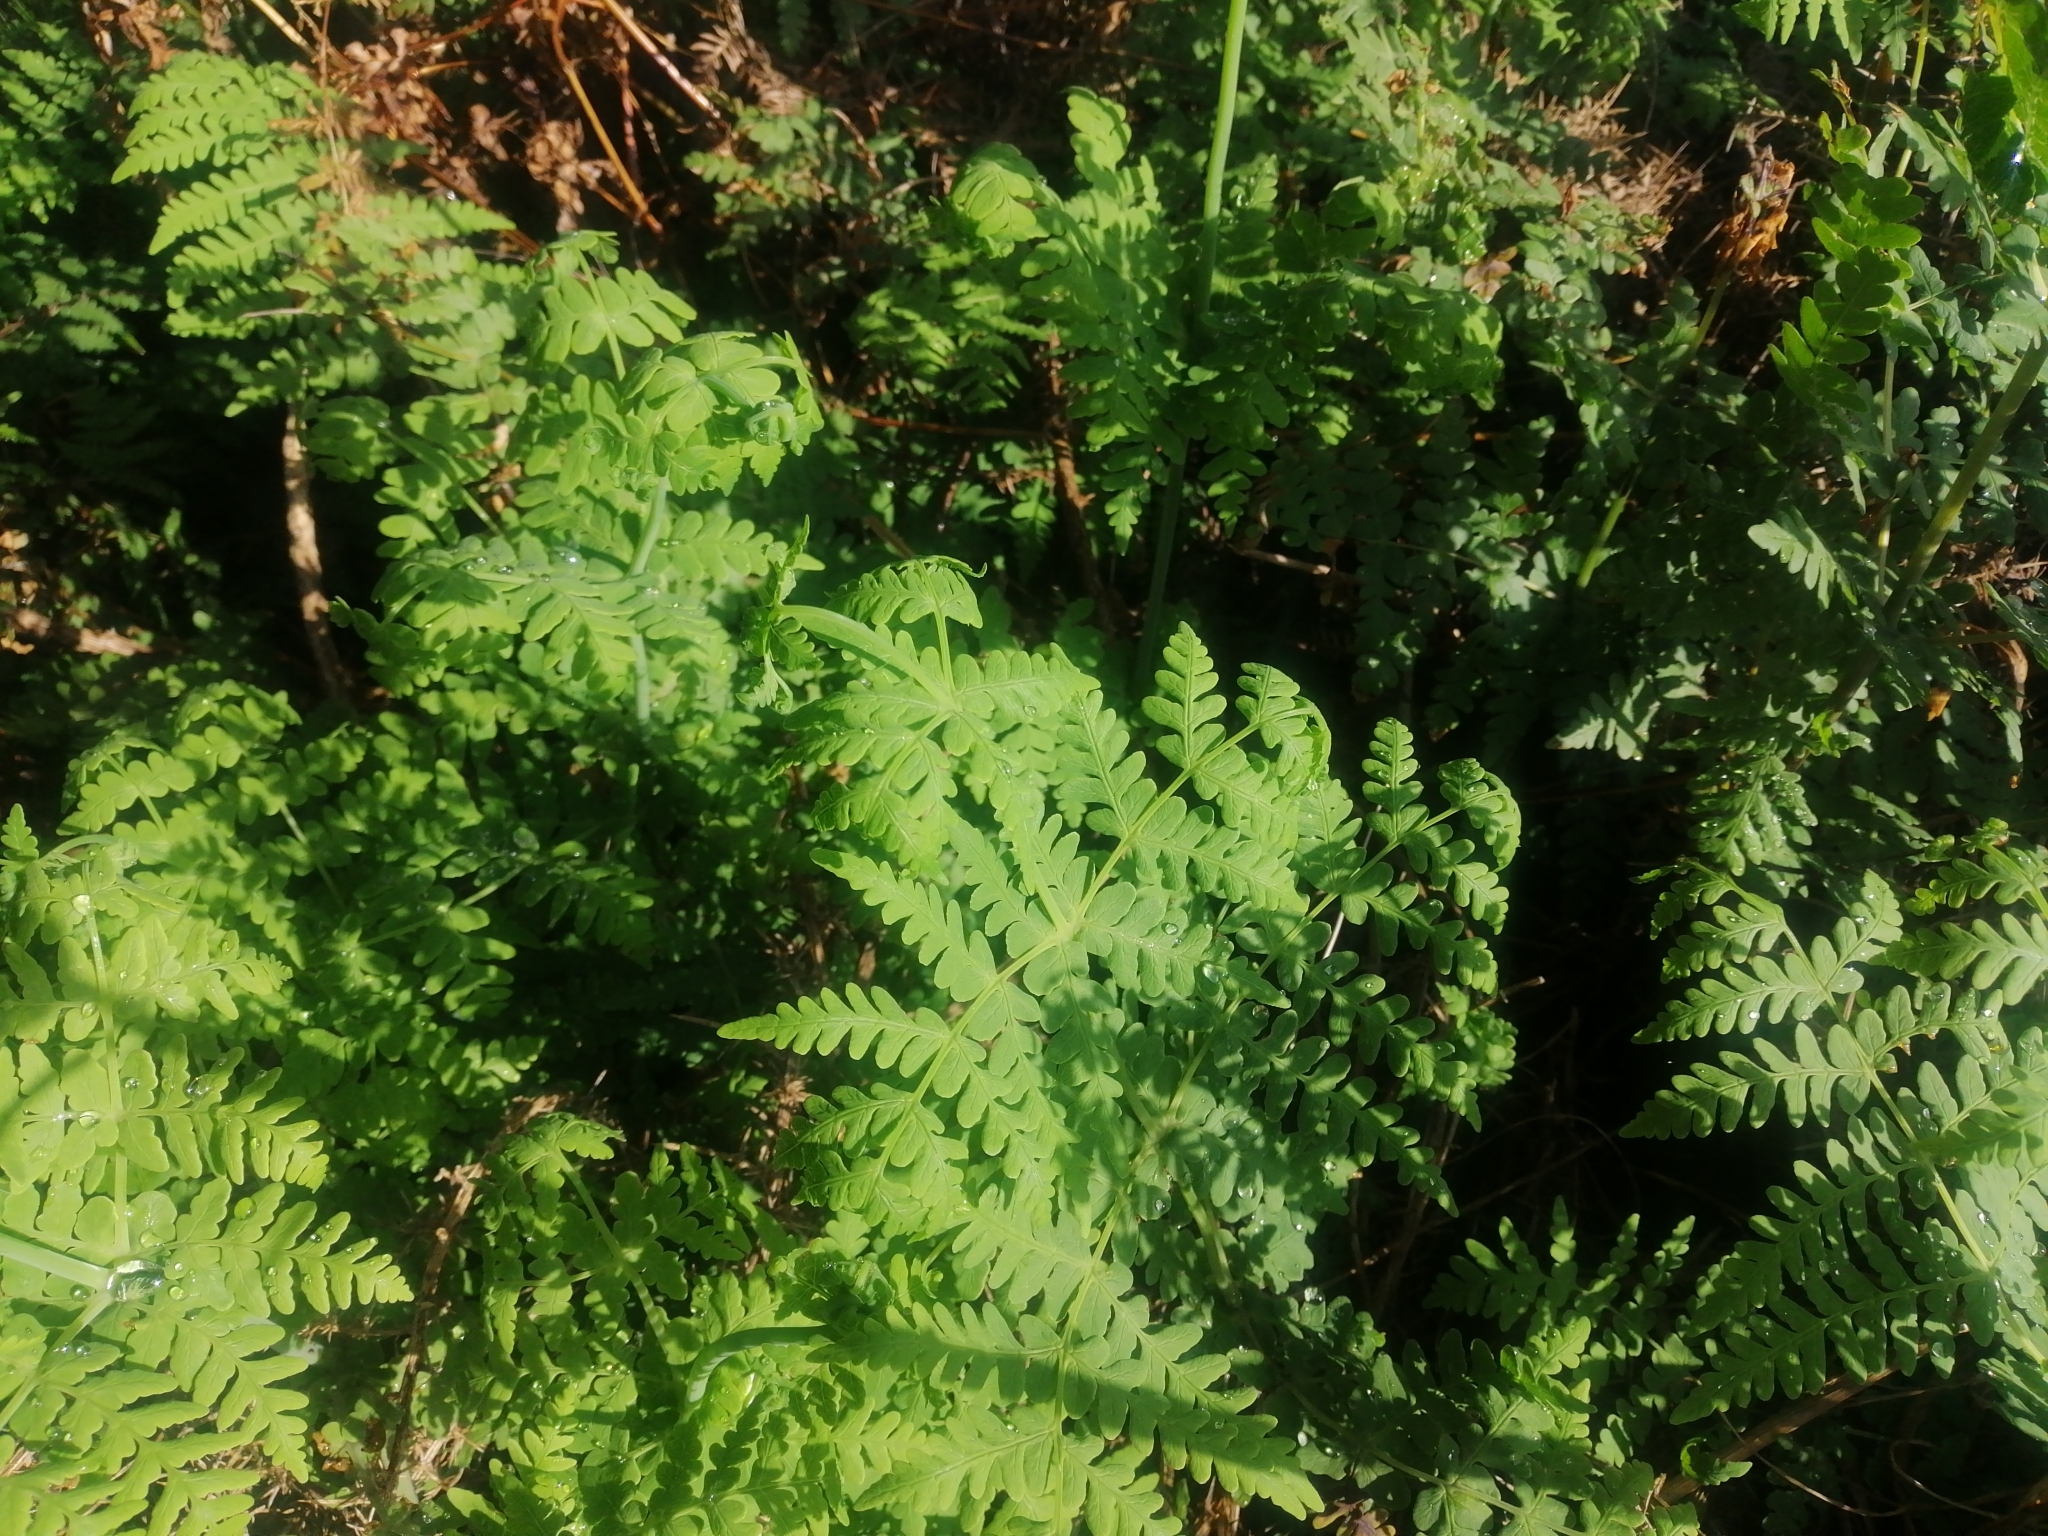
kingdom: Plantae
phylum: Tracheophyta
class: Polypodiopsida
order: Polypodiales
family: Dennstaedtiaceae
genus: Histiopteris
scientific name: Histiopteris incisa
